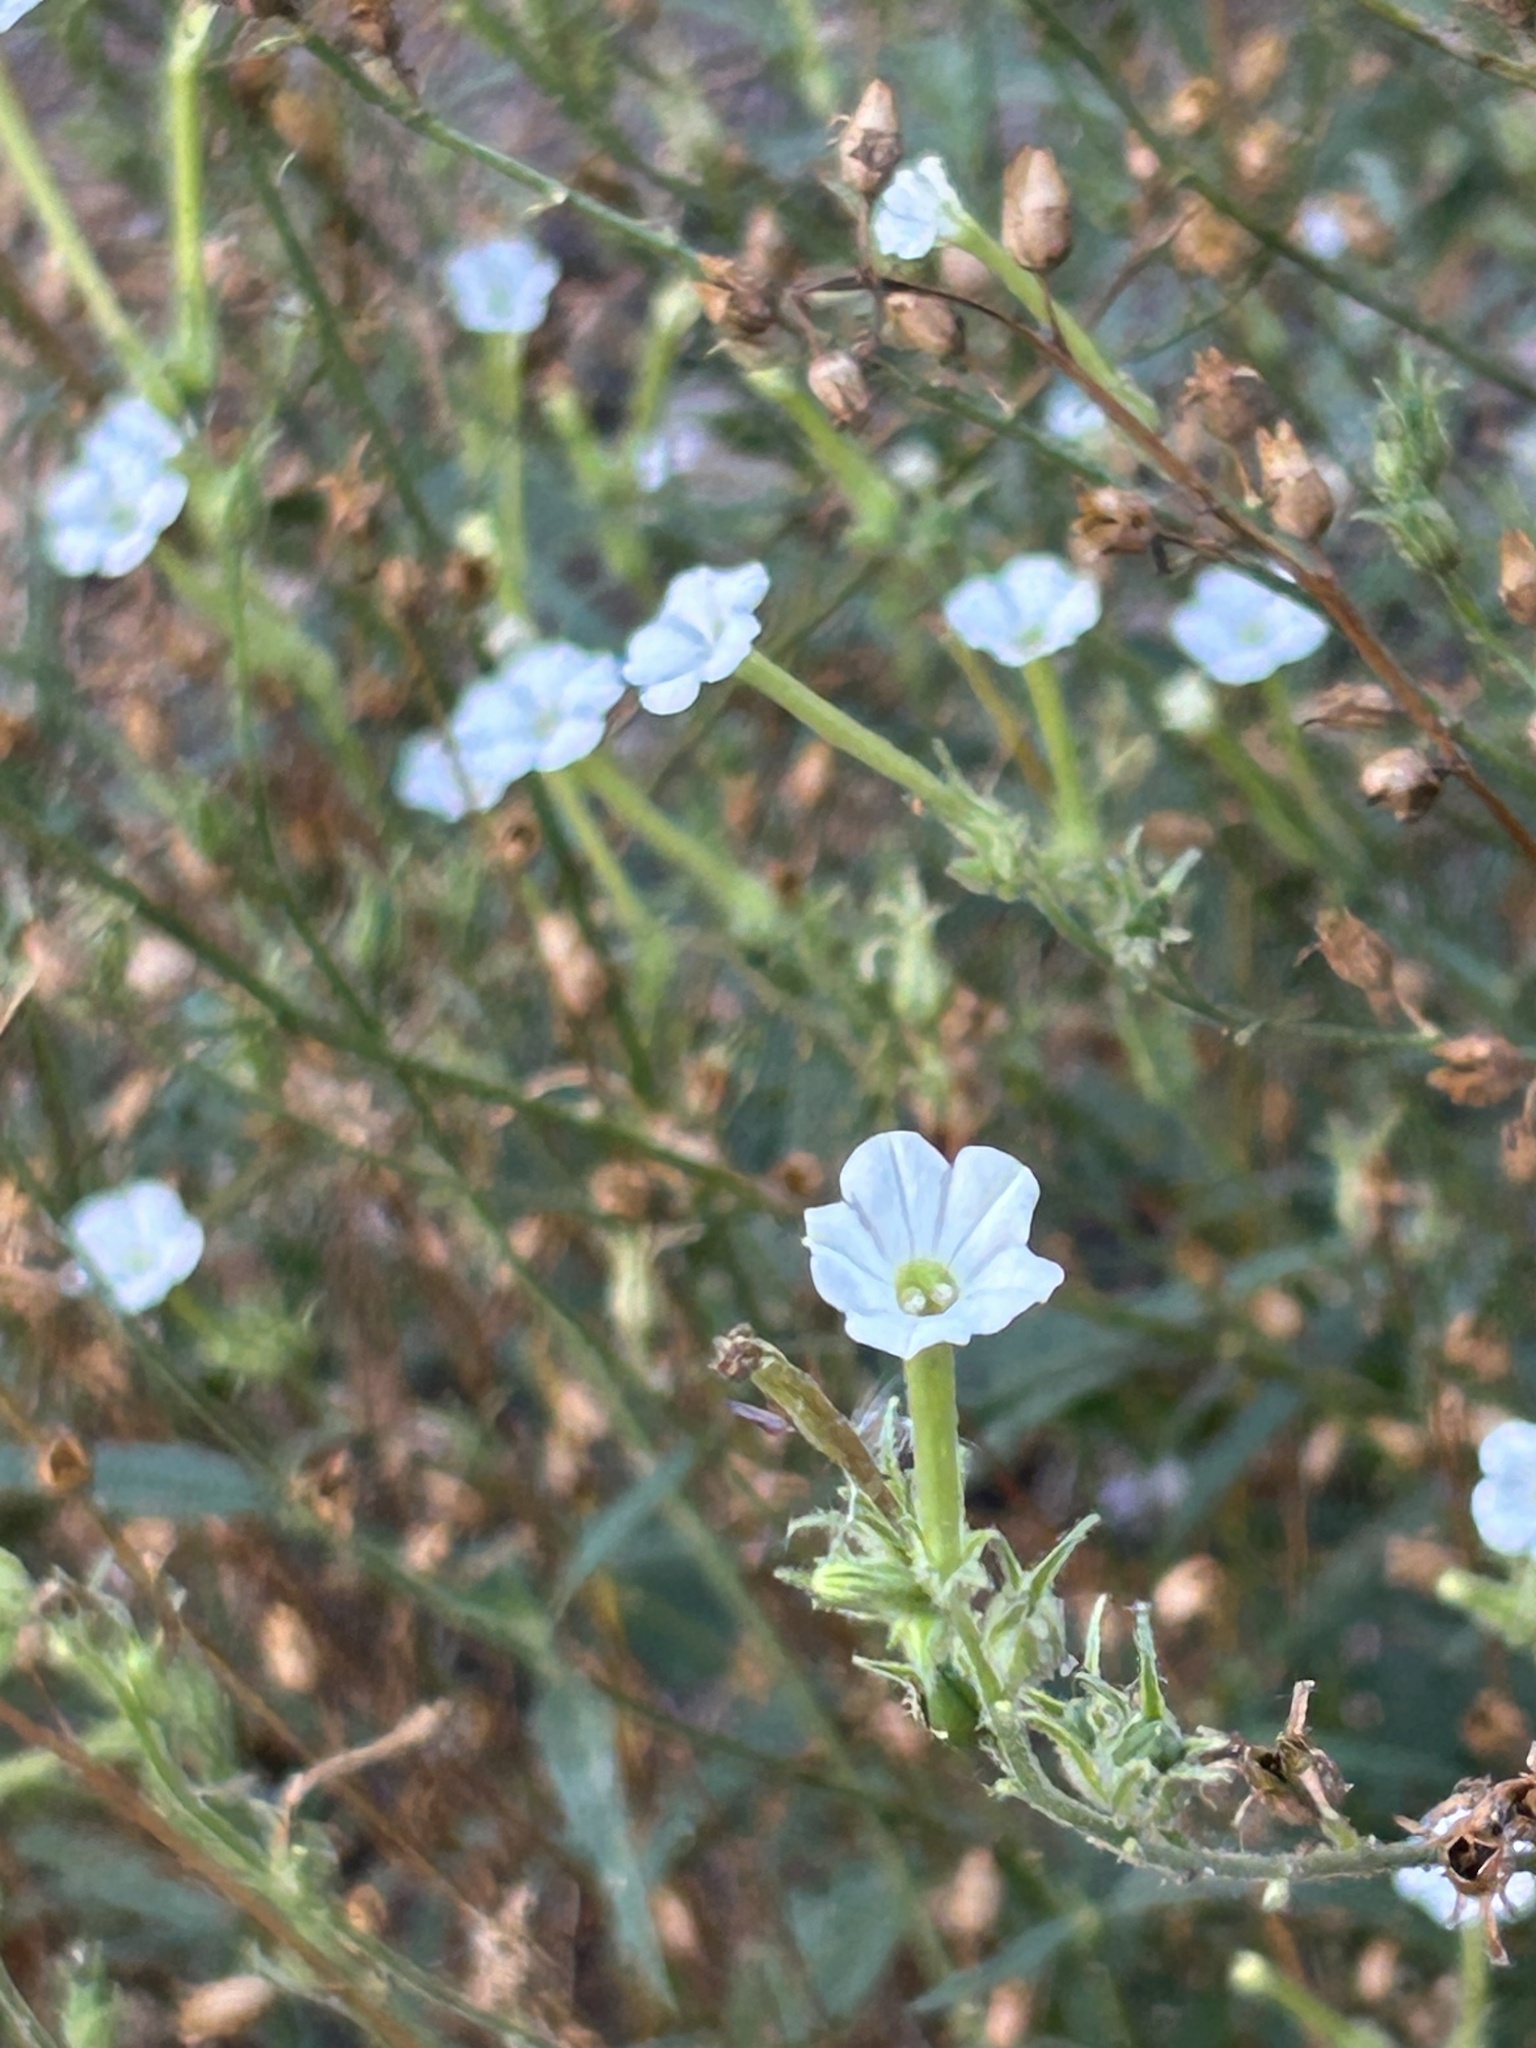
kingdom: Plantae
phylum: Tracheophyta
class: Magnoliopsida
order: Solanales
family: Solanaceae
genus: Nicotiana
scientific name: Nicotiana acuminata
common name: Manyflower tobacco
